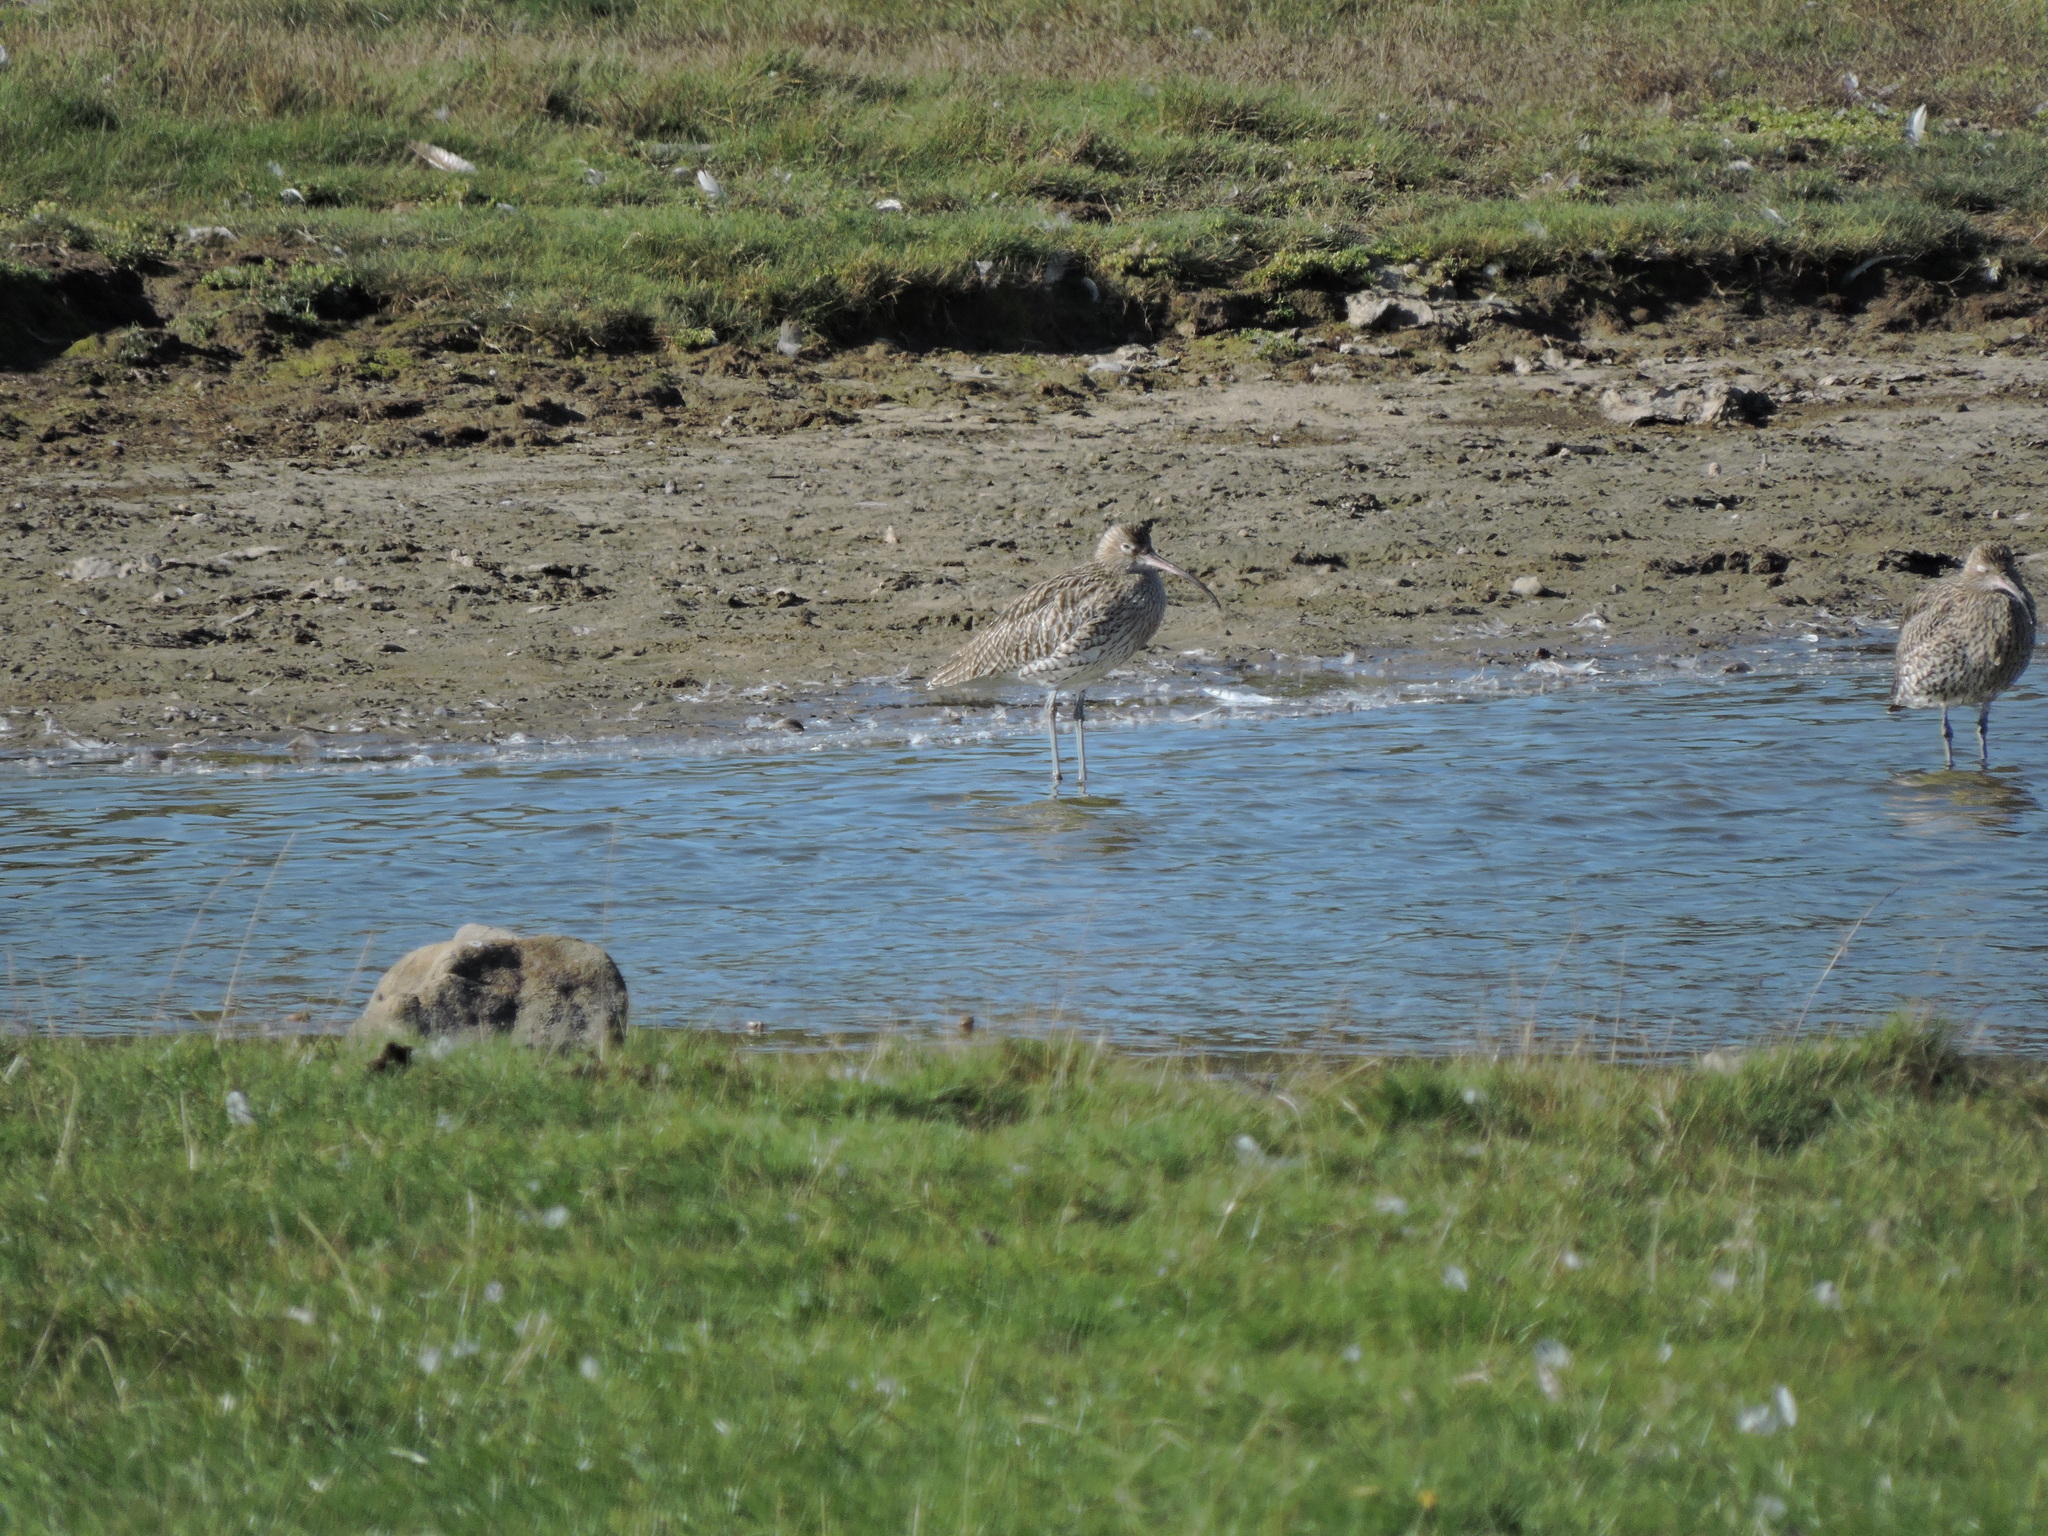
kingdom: Animalia
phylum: Chordata
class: Aves
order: Charadriiformes
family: Scolopacidae
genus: Numenius
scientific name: Numenius arquata
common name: Eurasian curlew
